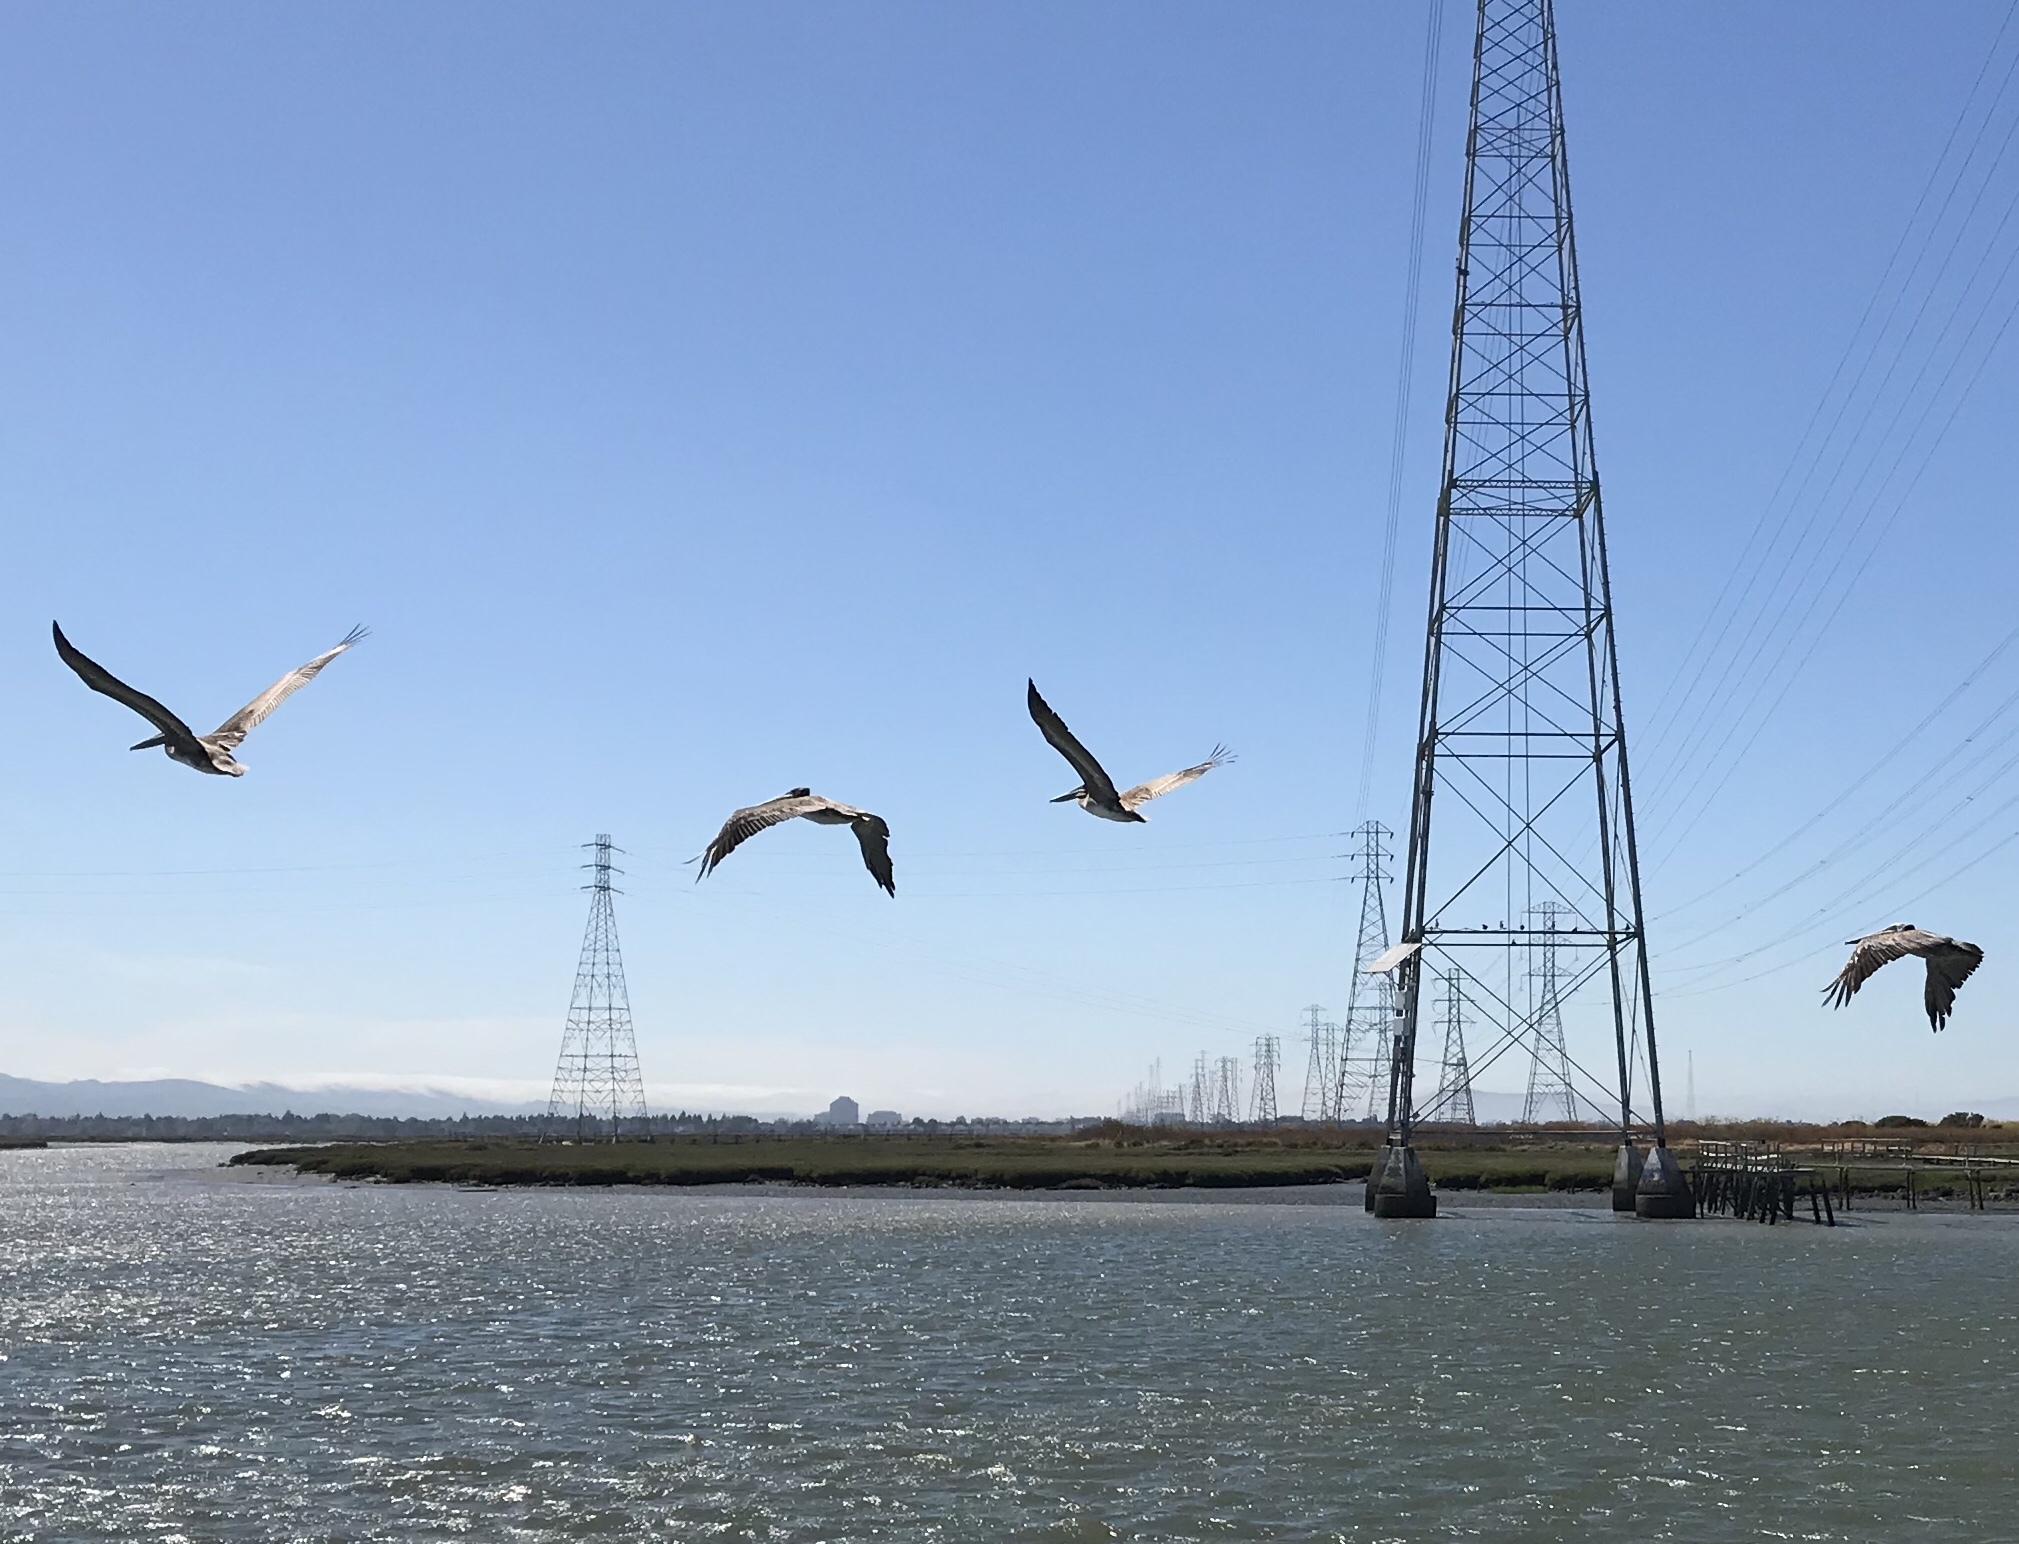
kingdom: Animalia
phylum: Chordata
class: Aves
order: Pelecaniformes
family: Pelecanidae
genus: Pelecanus
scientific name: Pelecanus occidentalis
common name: Brown pelican
